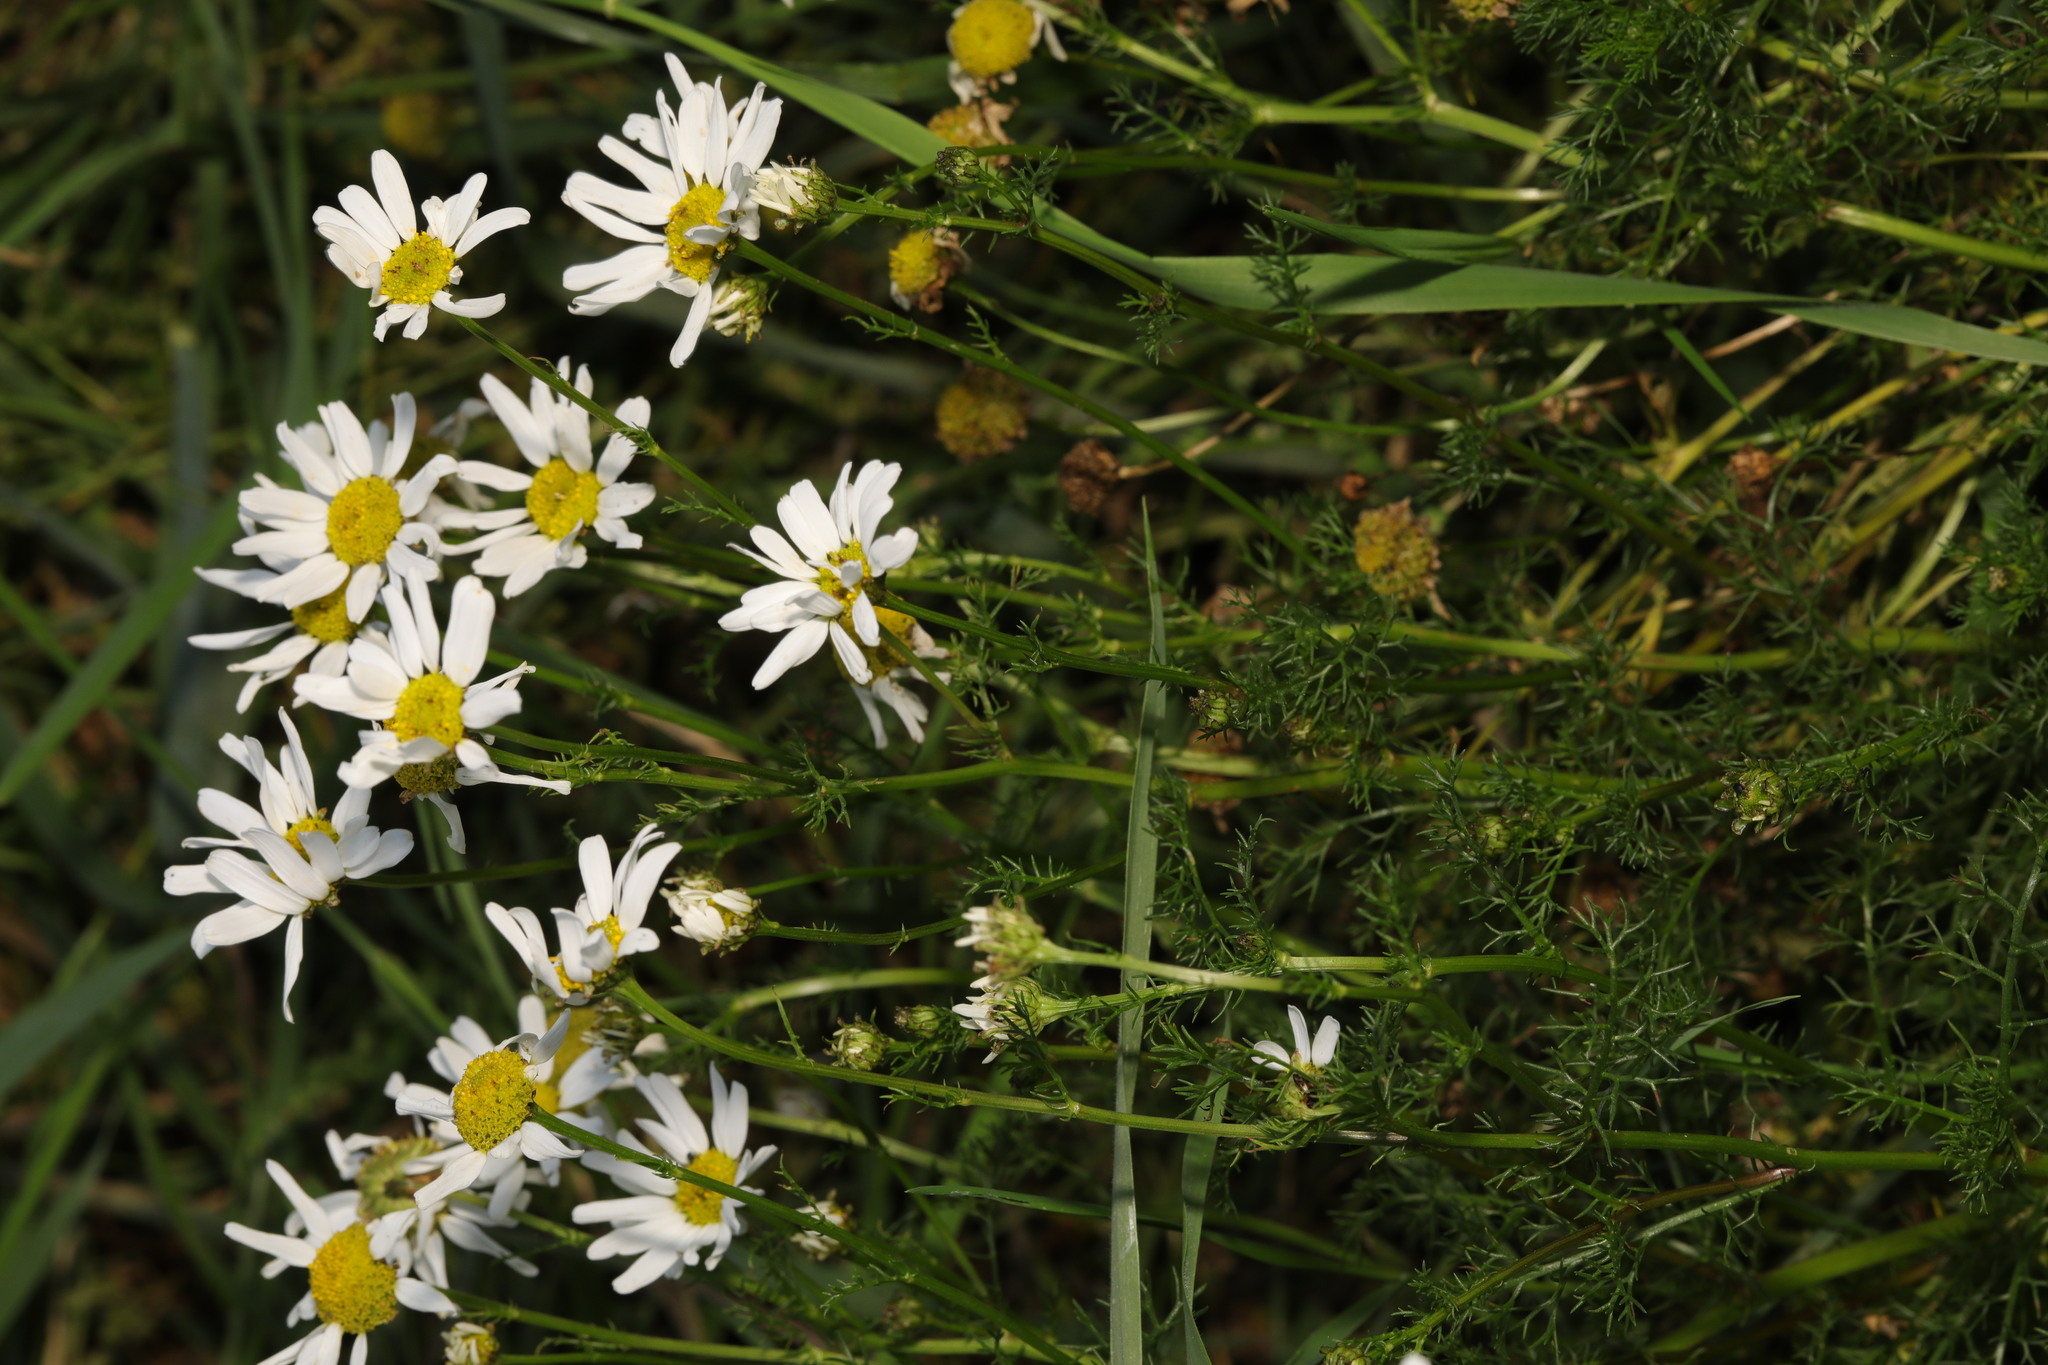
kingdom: Plantae
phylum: Tracheophyta
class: Magnoliopsida
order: Asterales
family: Asteraceae
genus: Tripleurospermum
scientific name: Tripleurospermum inodorum
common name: Scentless mayweed
